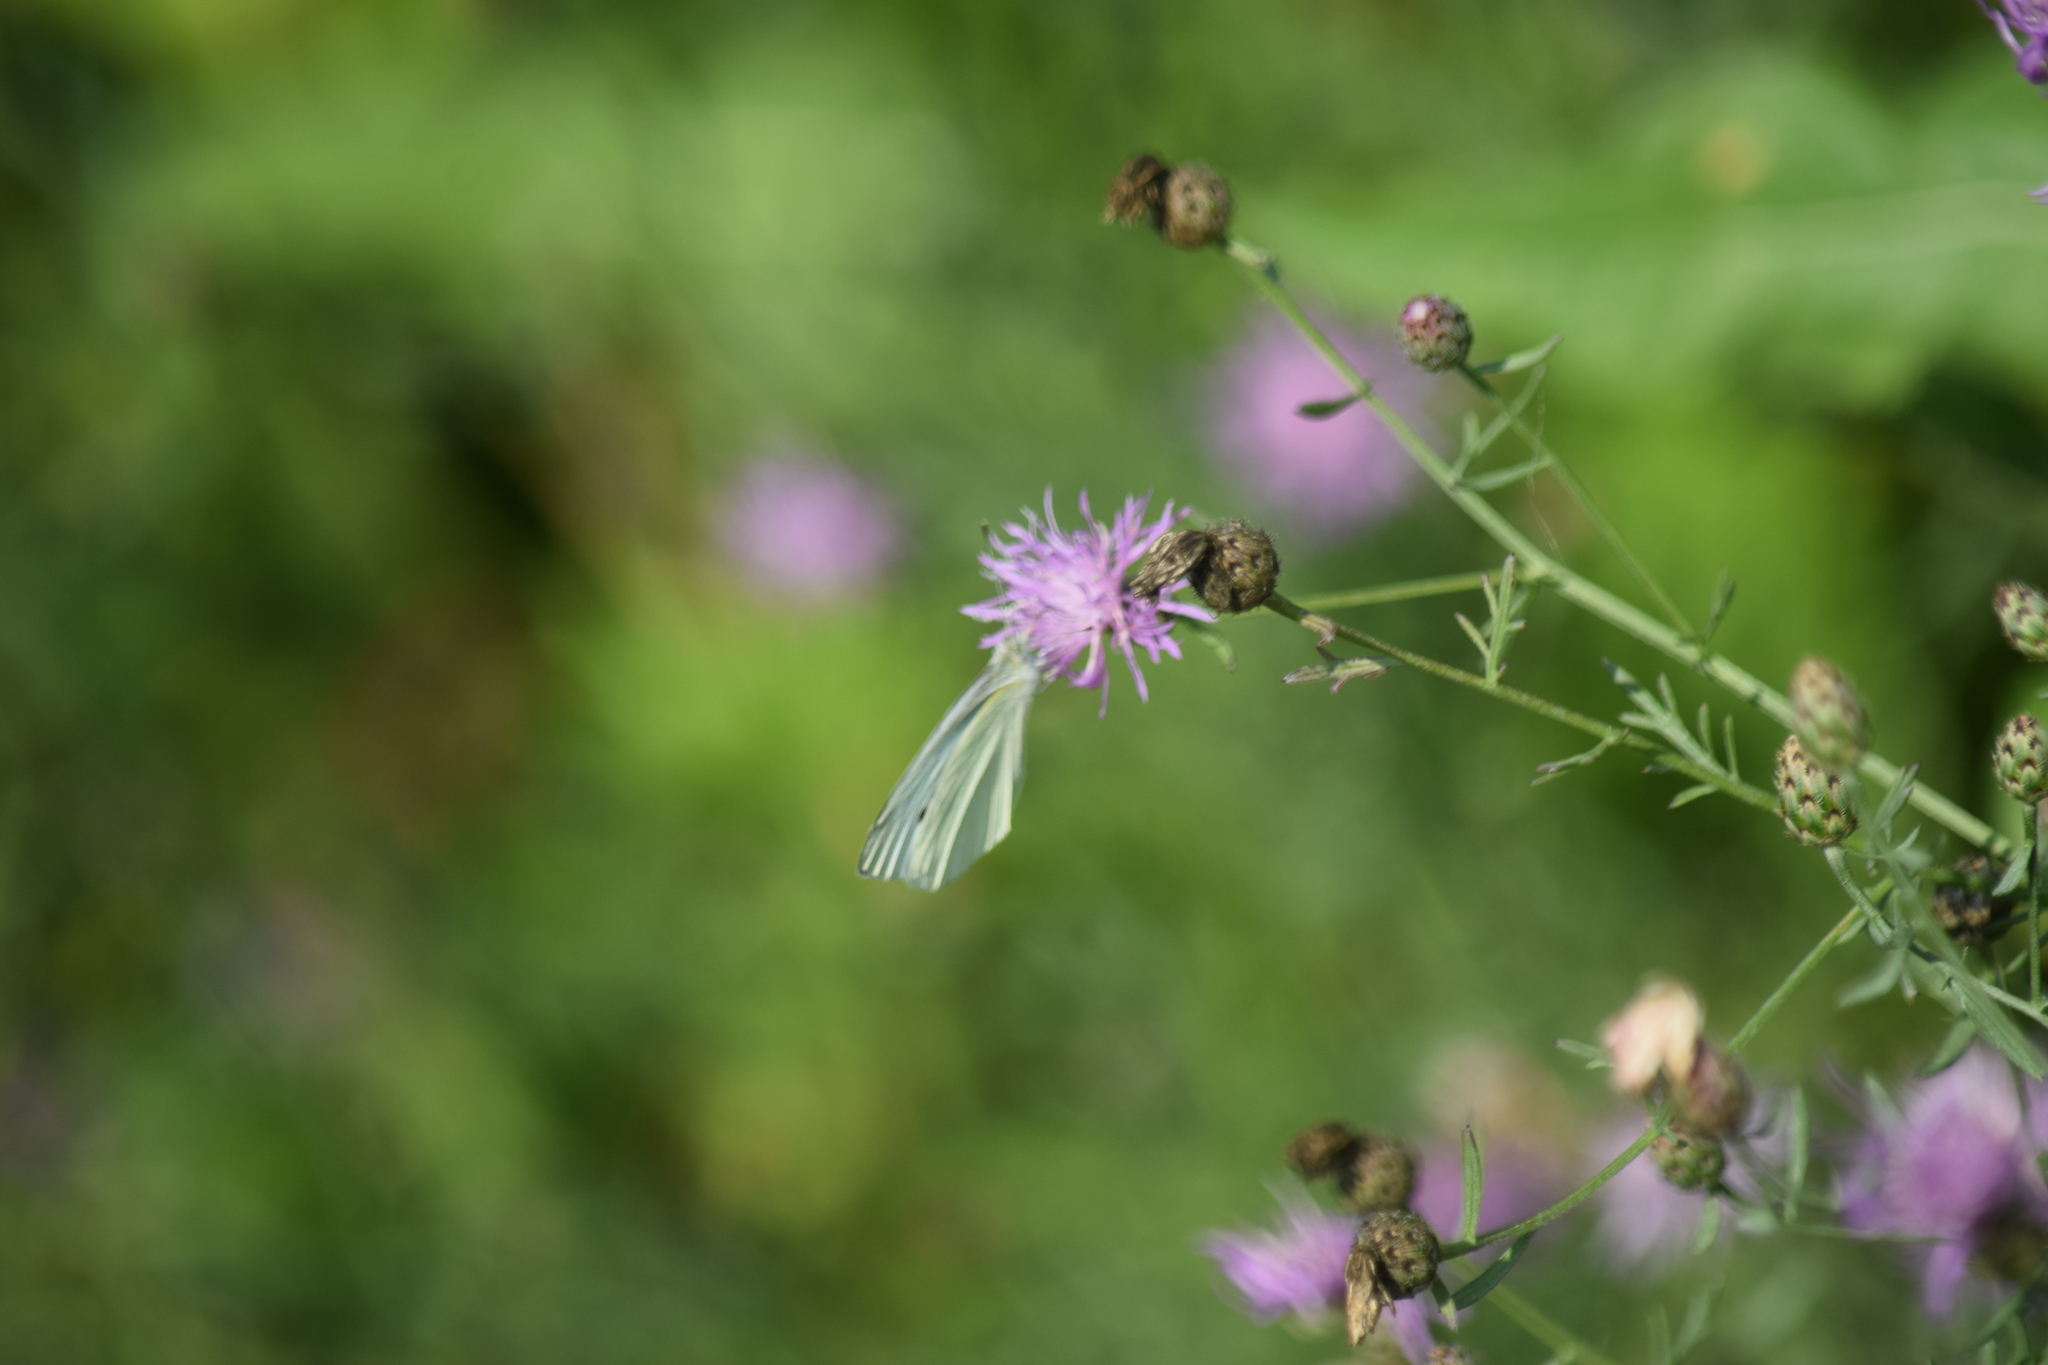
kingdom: Animalia
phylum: Arthropoda
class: Insecta
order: Lepidoptera
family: Pieridae
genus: Pieris
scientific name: Pieris rapae
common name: Small white
